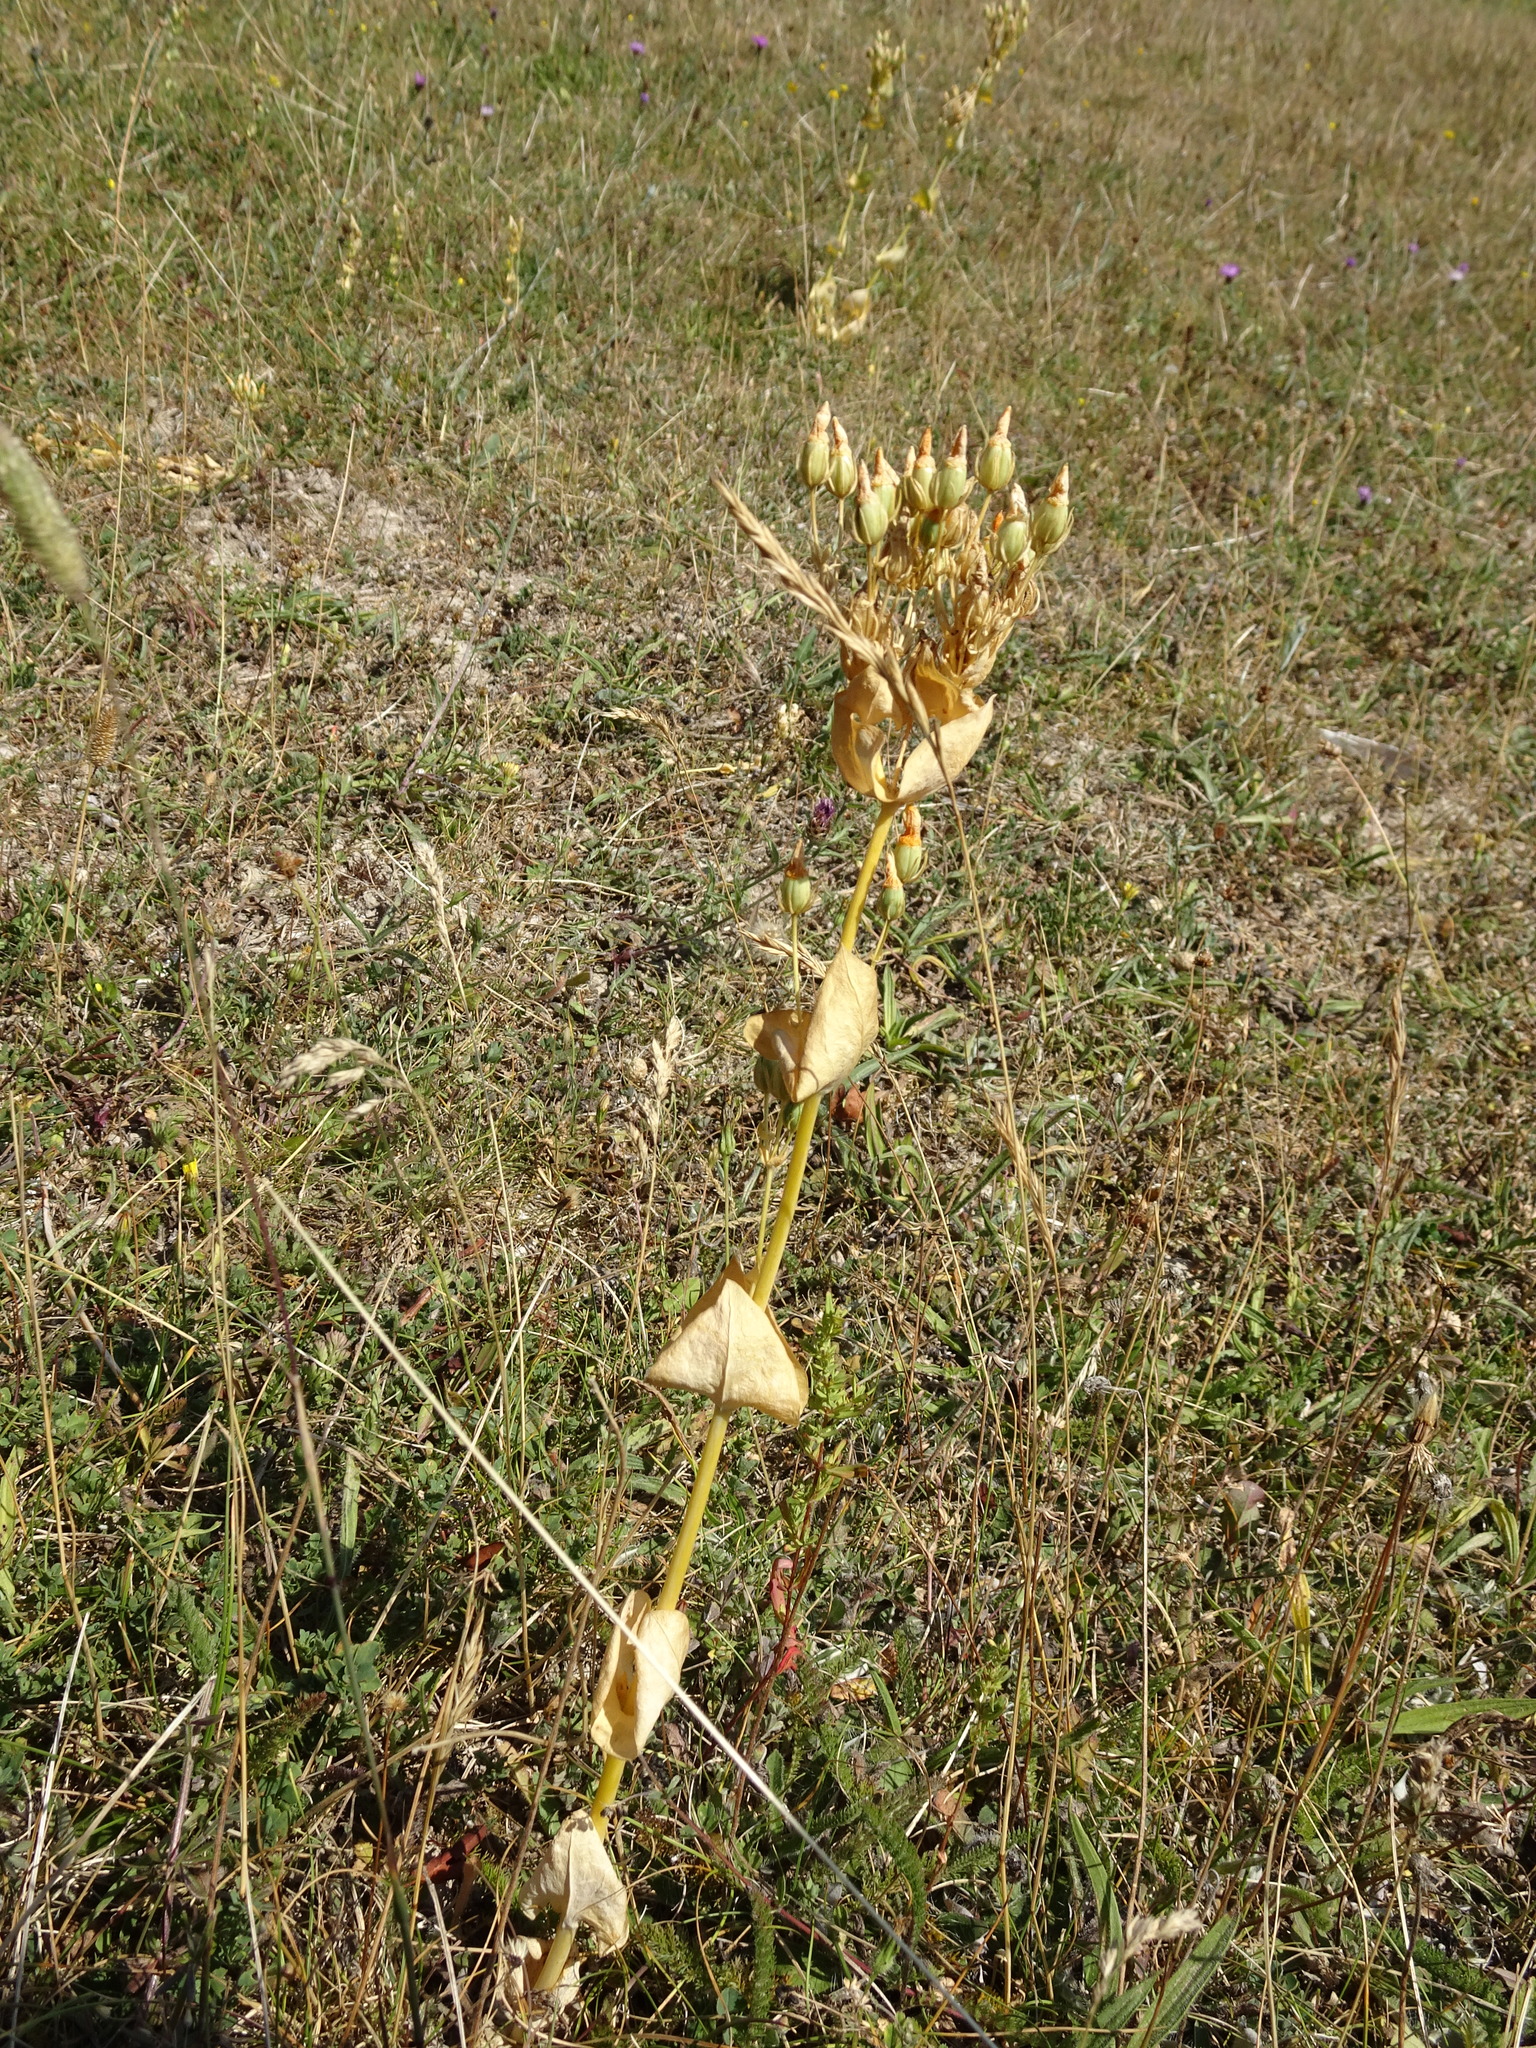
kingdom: Plantae
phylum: Tracheophyta
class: Magnoliopsida
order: Gentianales
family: Gentianaceae
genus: Blackstonia
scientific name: Blackstonia perfoliata
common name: Yellow-wort
